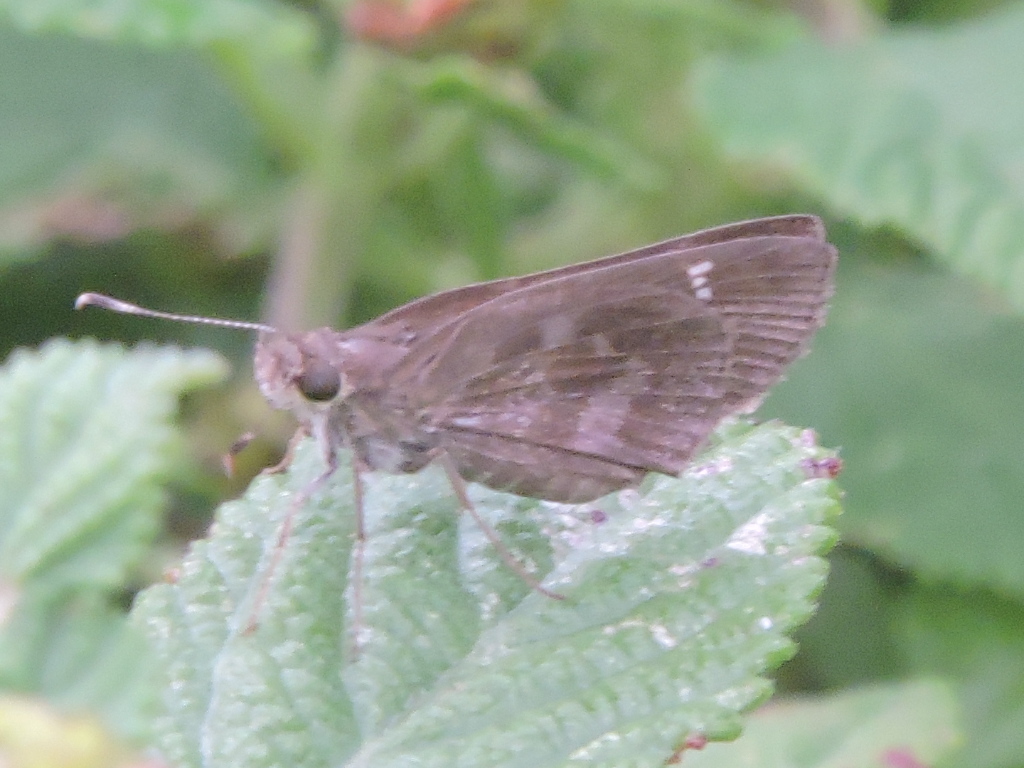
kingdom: Animalia
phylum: Arthropoda
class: Insecta
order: Lepidoptera
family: Hesperiidae
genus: Cymaenes
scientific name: Cymaenes
